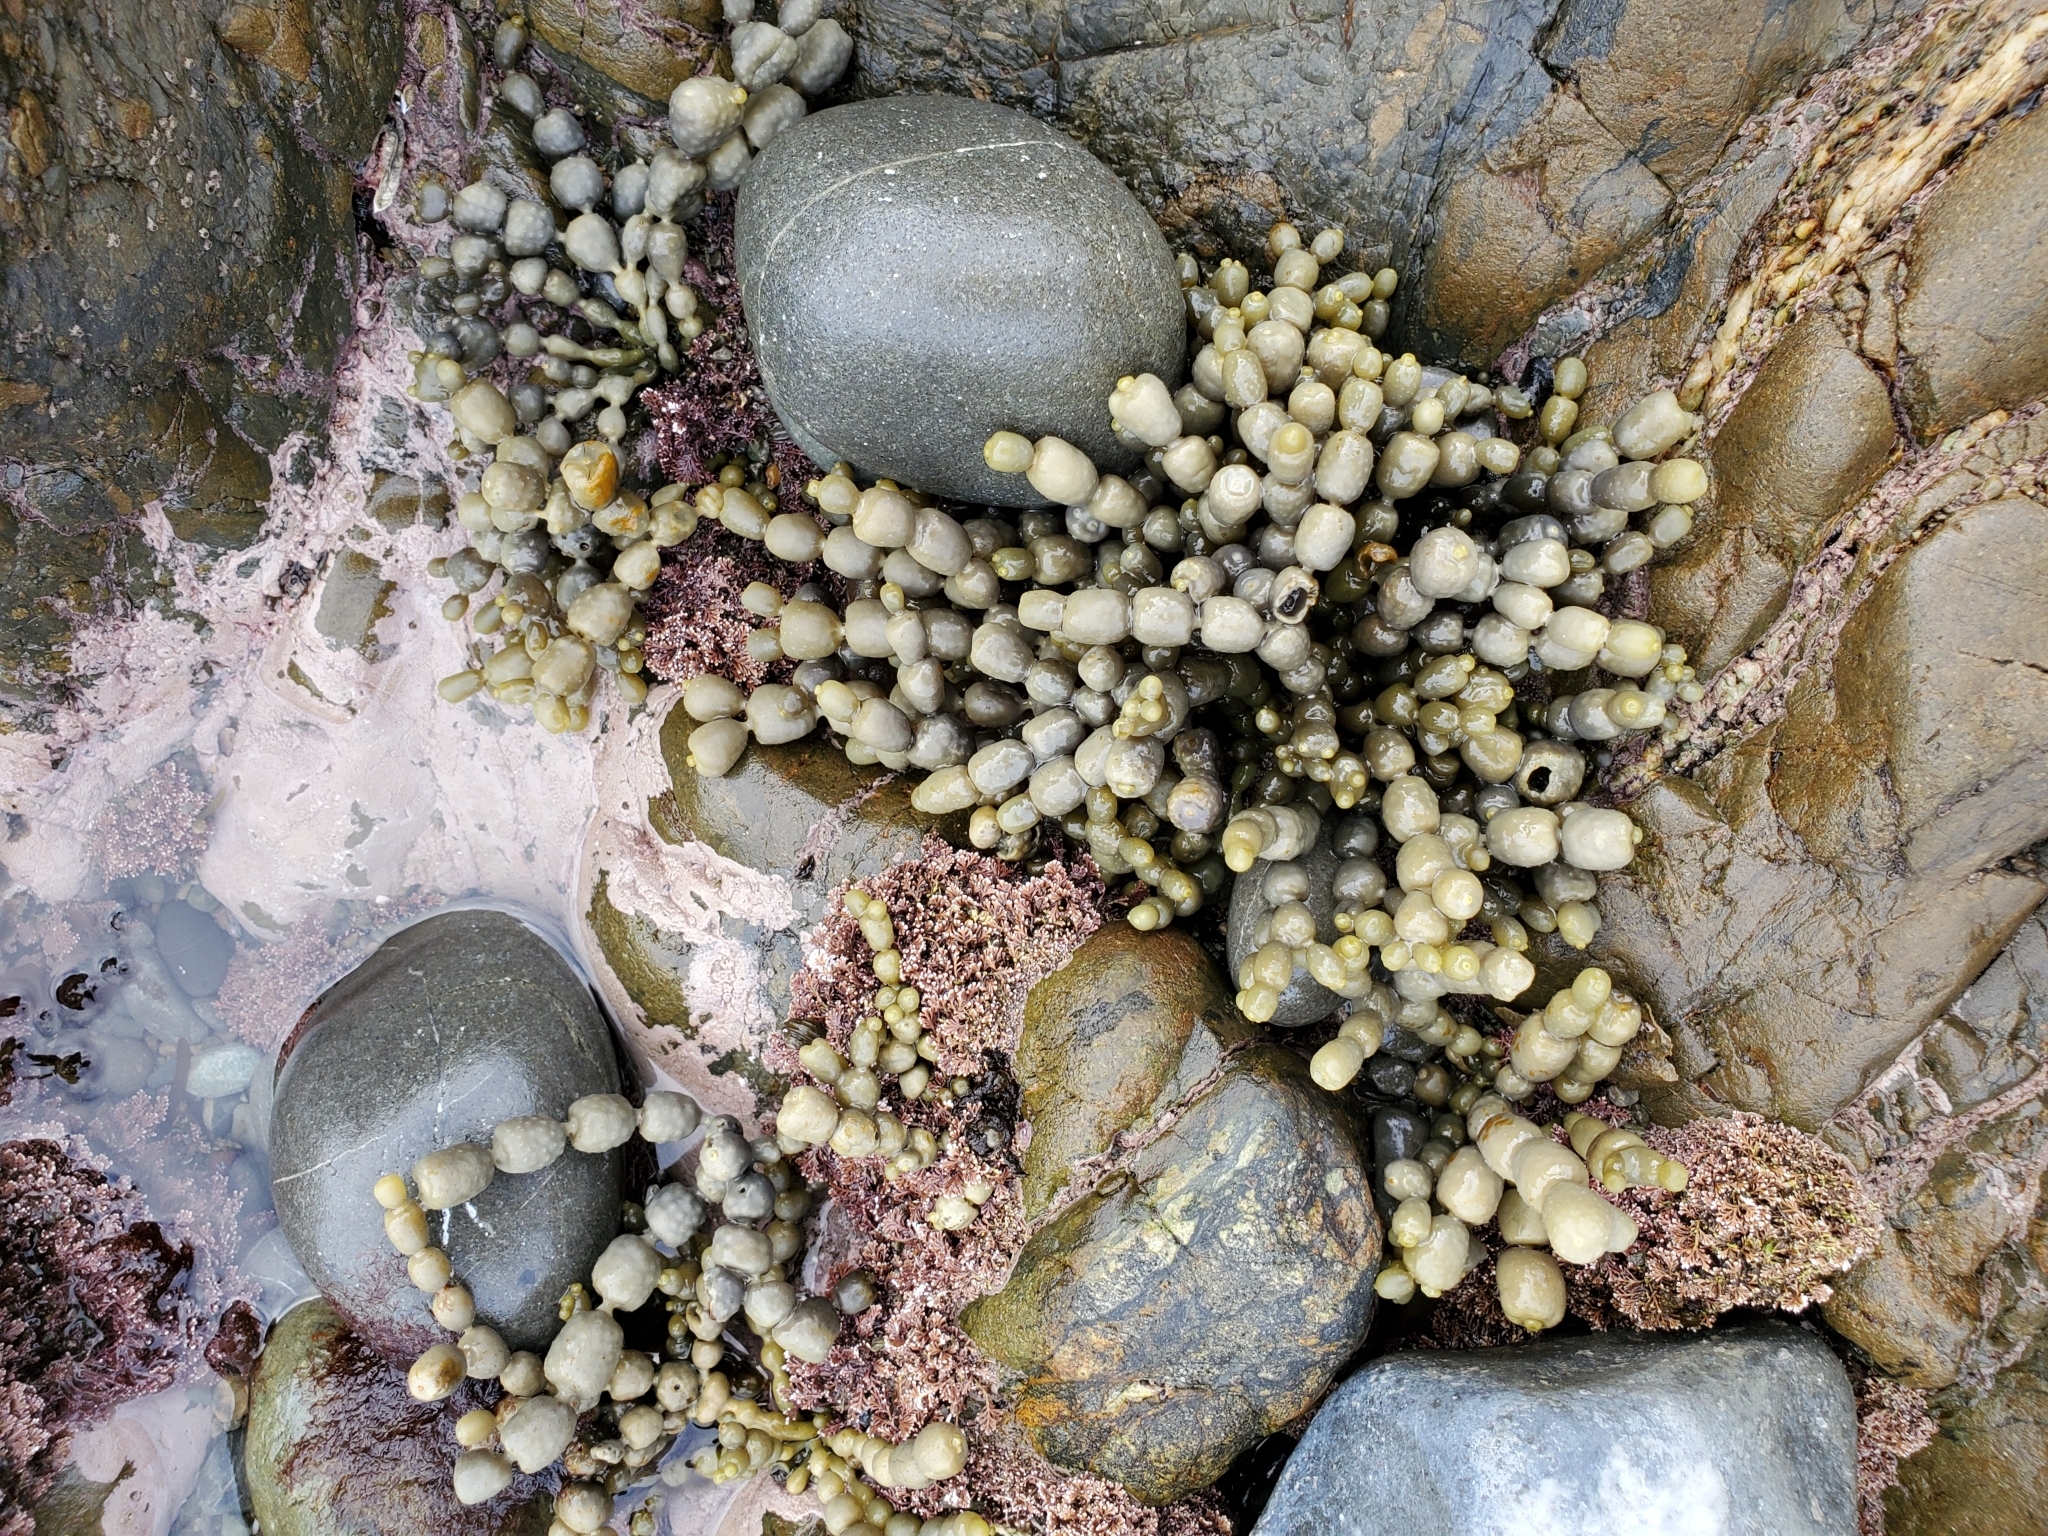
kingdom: Chromista
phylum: Ochrophyta
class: Phaeophyceae
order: Fucales
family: Hormosiraceae
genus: Hormosira
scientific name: Hormosira banksii
